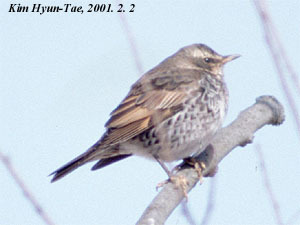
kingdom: Animalia
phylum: Chordata
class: Aves
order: Passeriformes
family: Turdidae
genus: Turdus
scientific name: Turdus eunomus
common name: Dusky thrush
